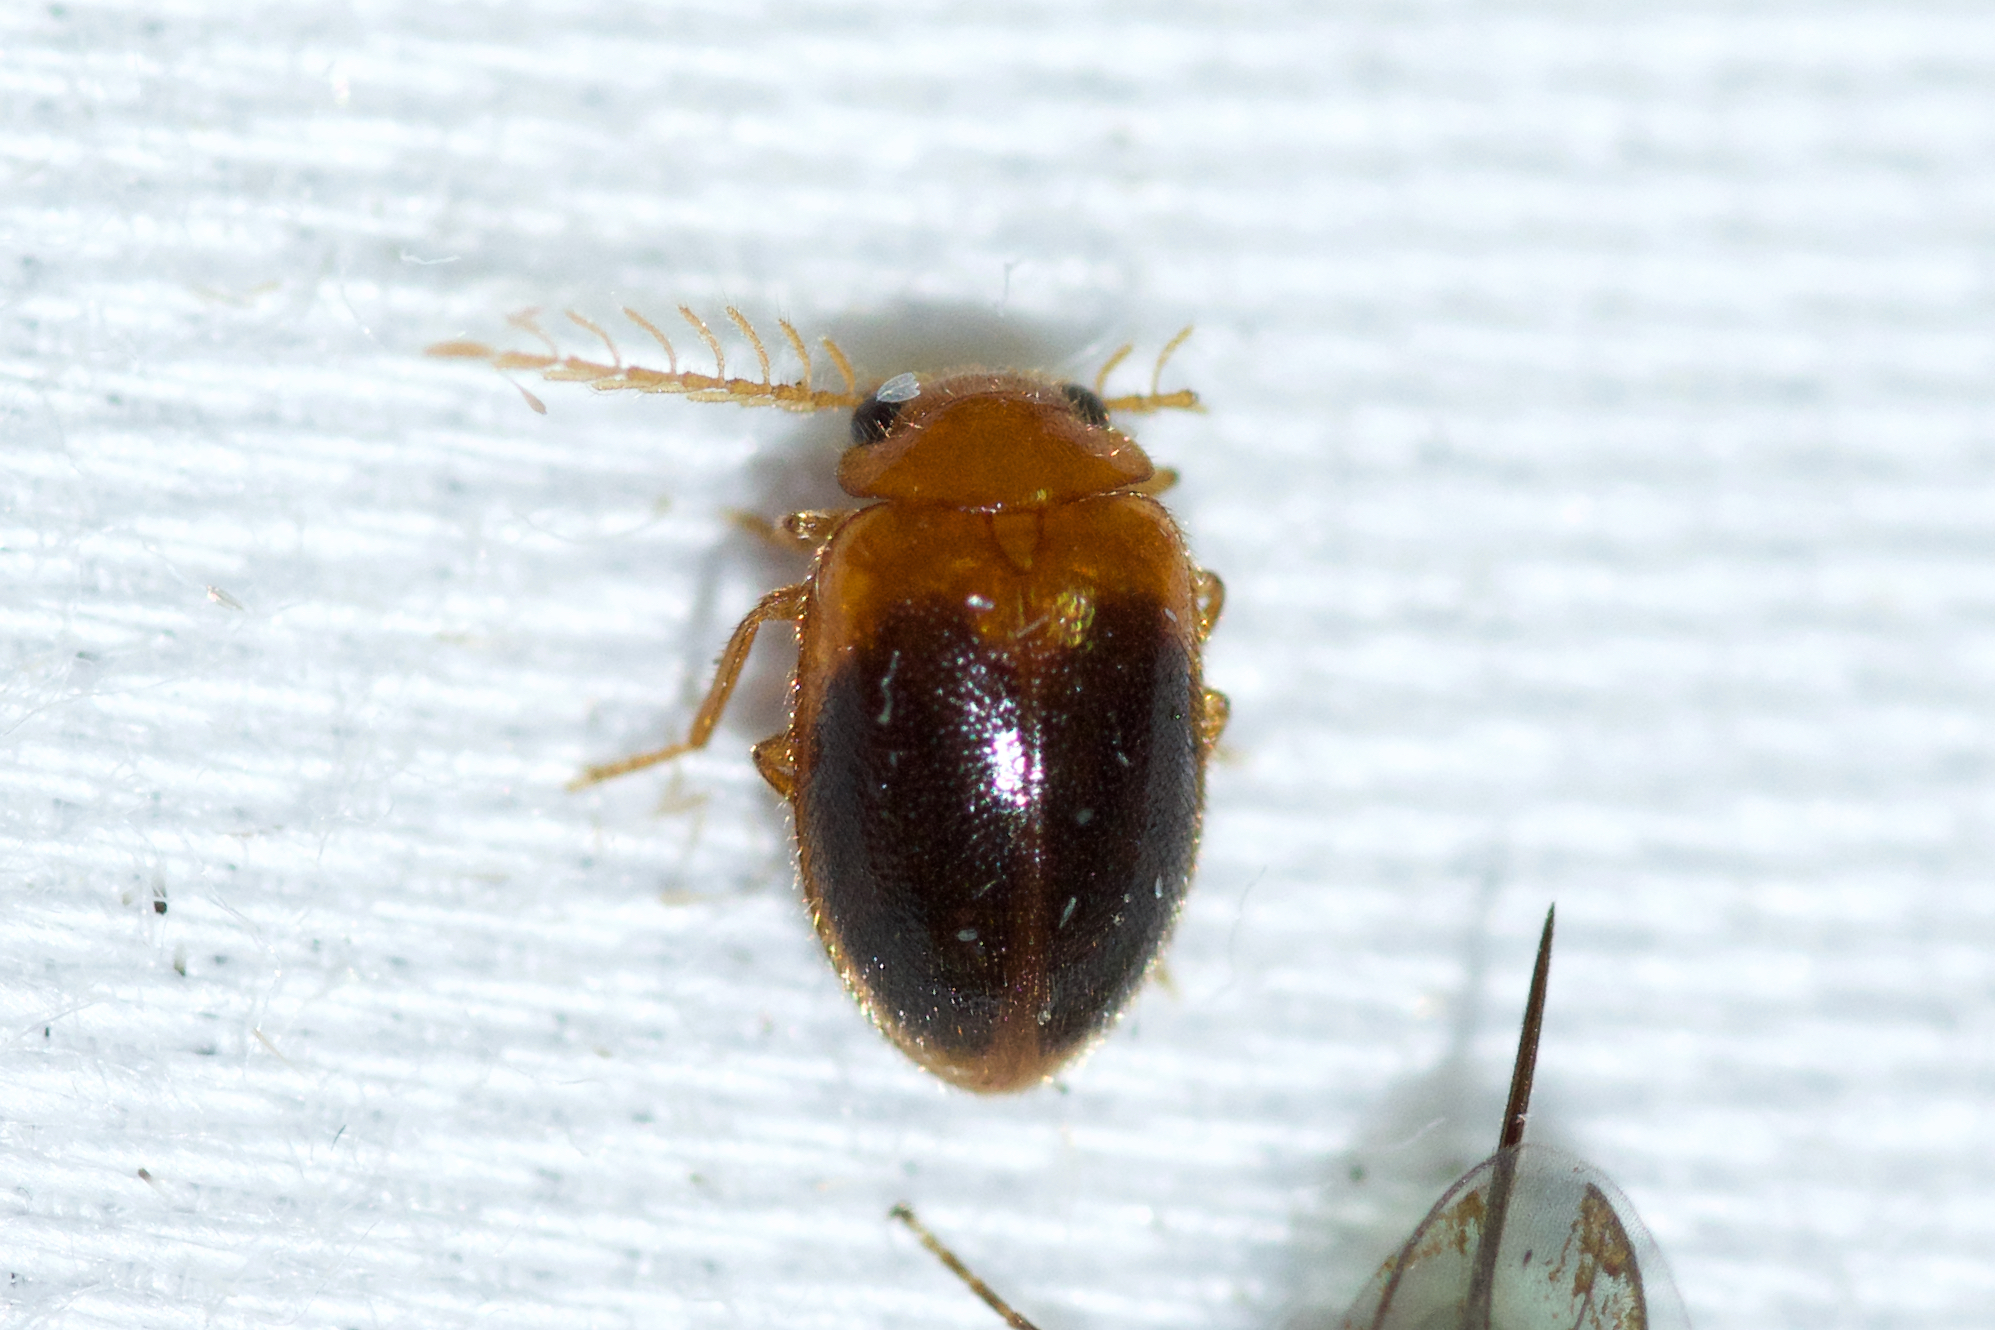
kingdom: Animalia
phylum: Arthropoda
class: Insecta
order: Coleoptera
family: Scirtidae
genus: Prionocyphon
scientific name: Prionocyphon discoideus
